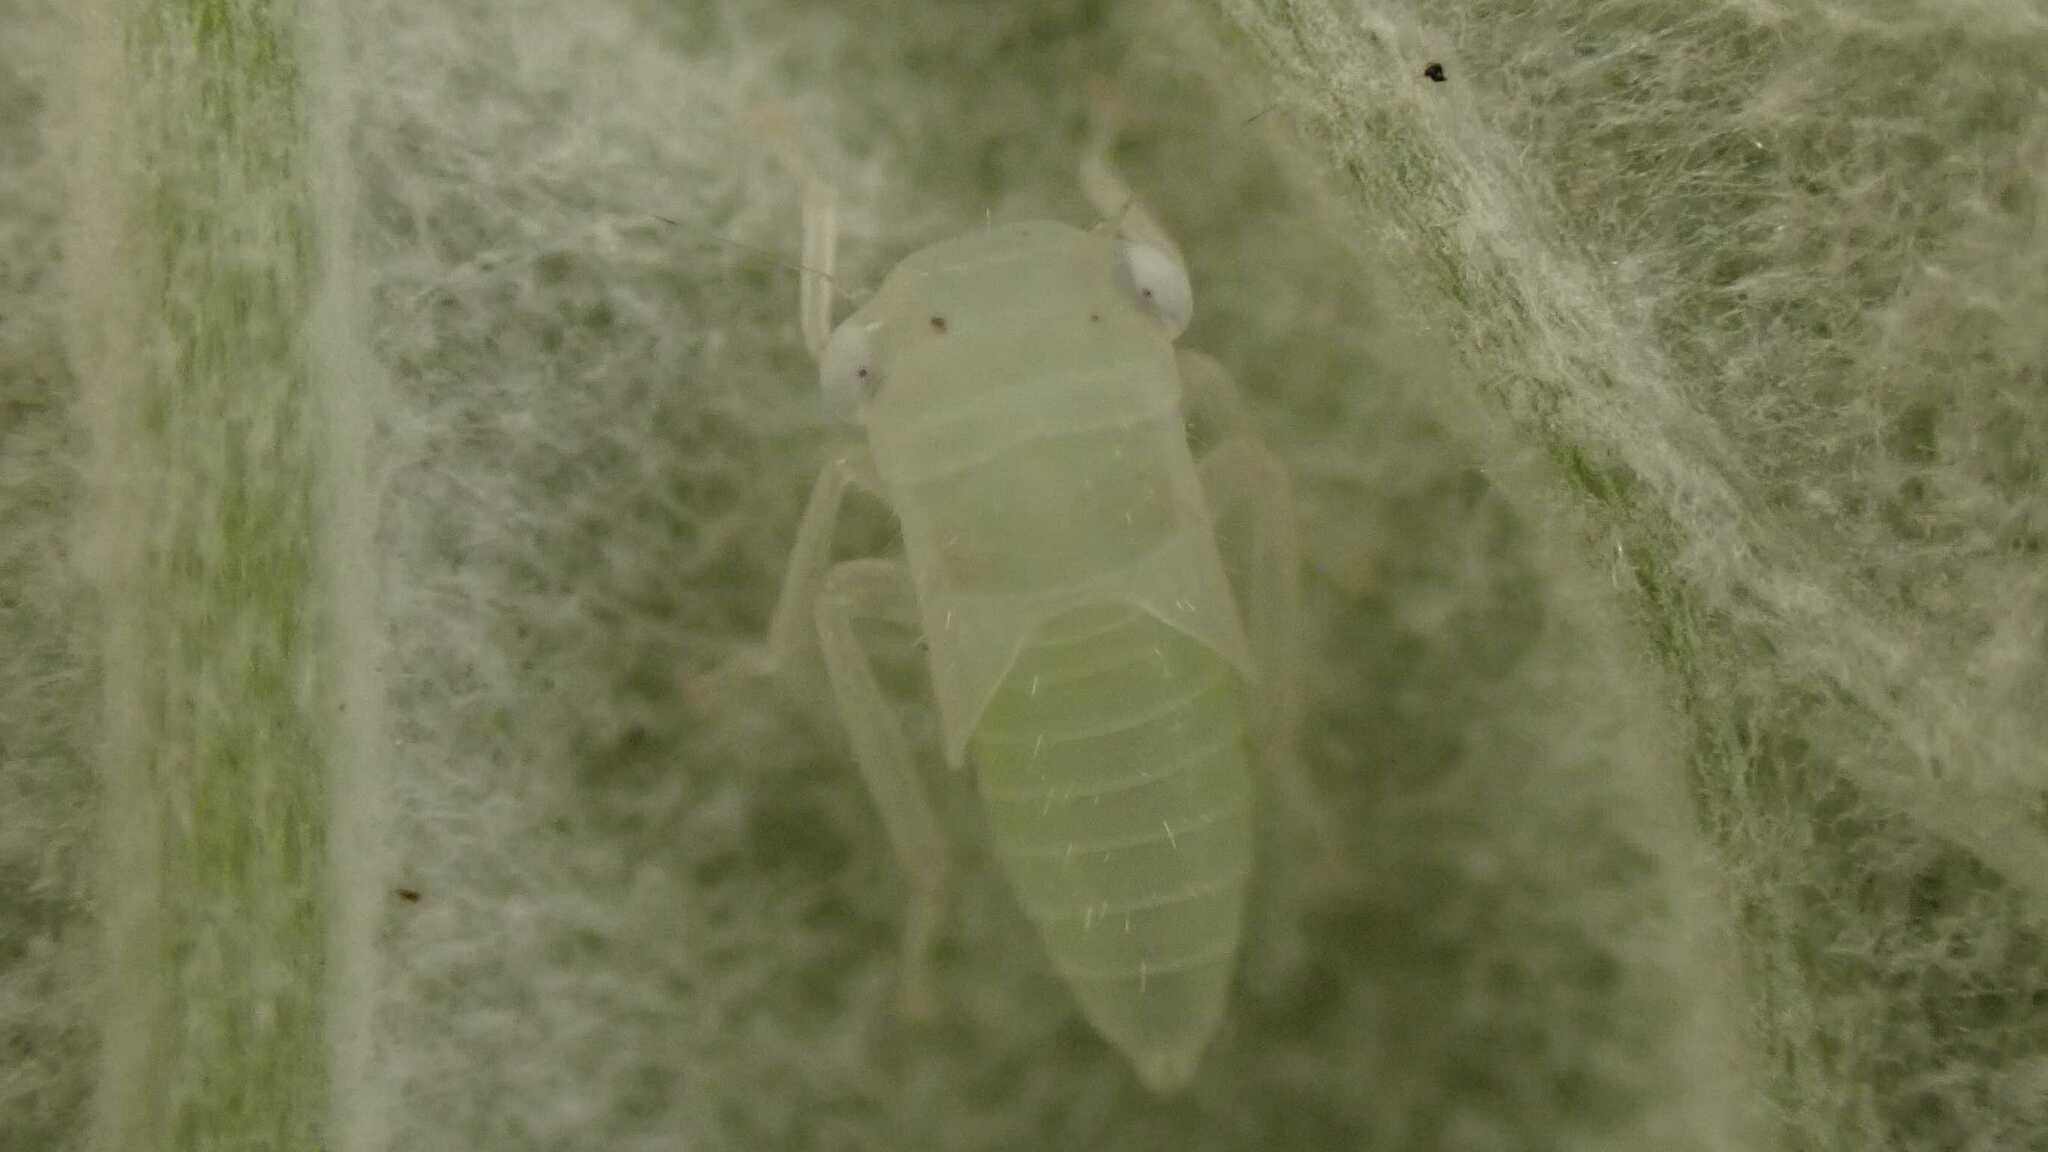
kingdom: Animalia
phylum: Arthropoda
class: Insecta
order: Hemiptera
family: Cicadellidae
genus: Populicerus
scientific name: Populicerus albicans
